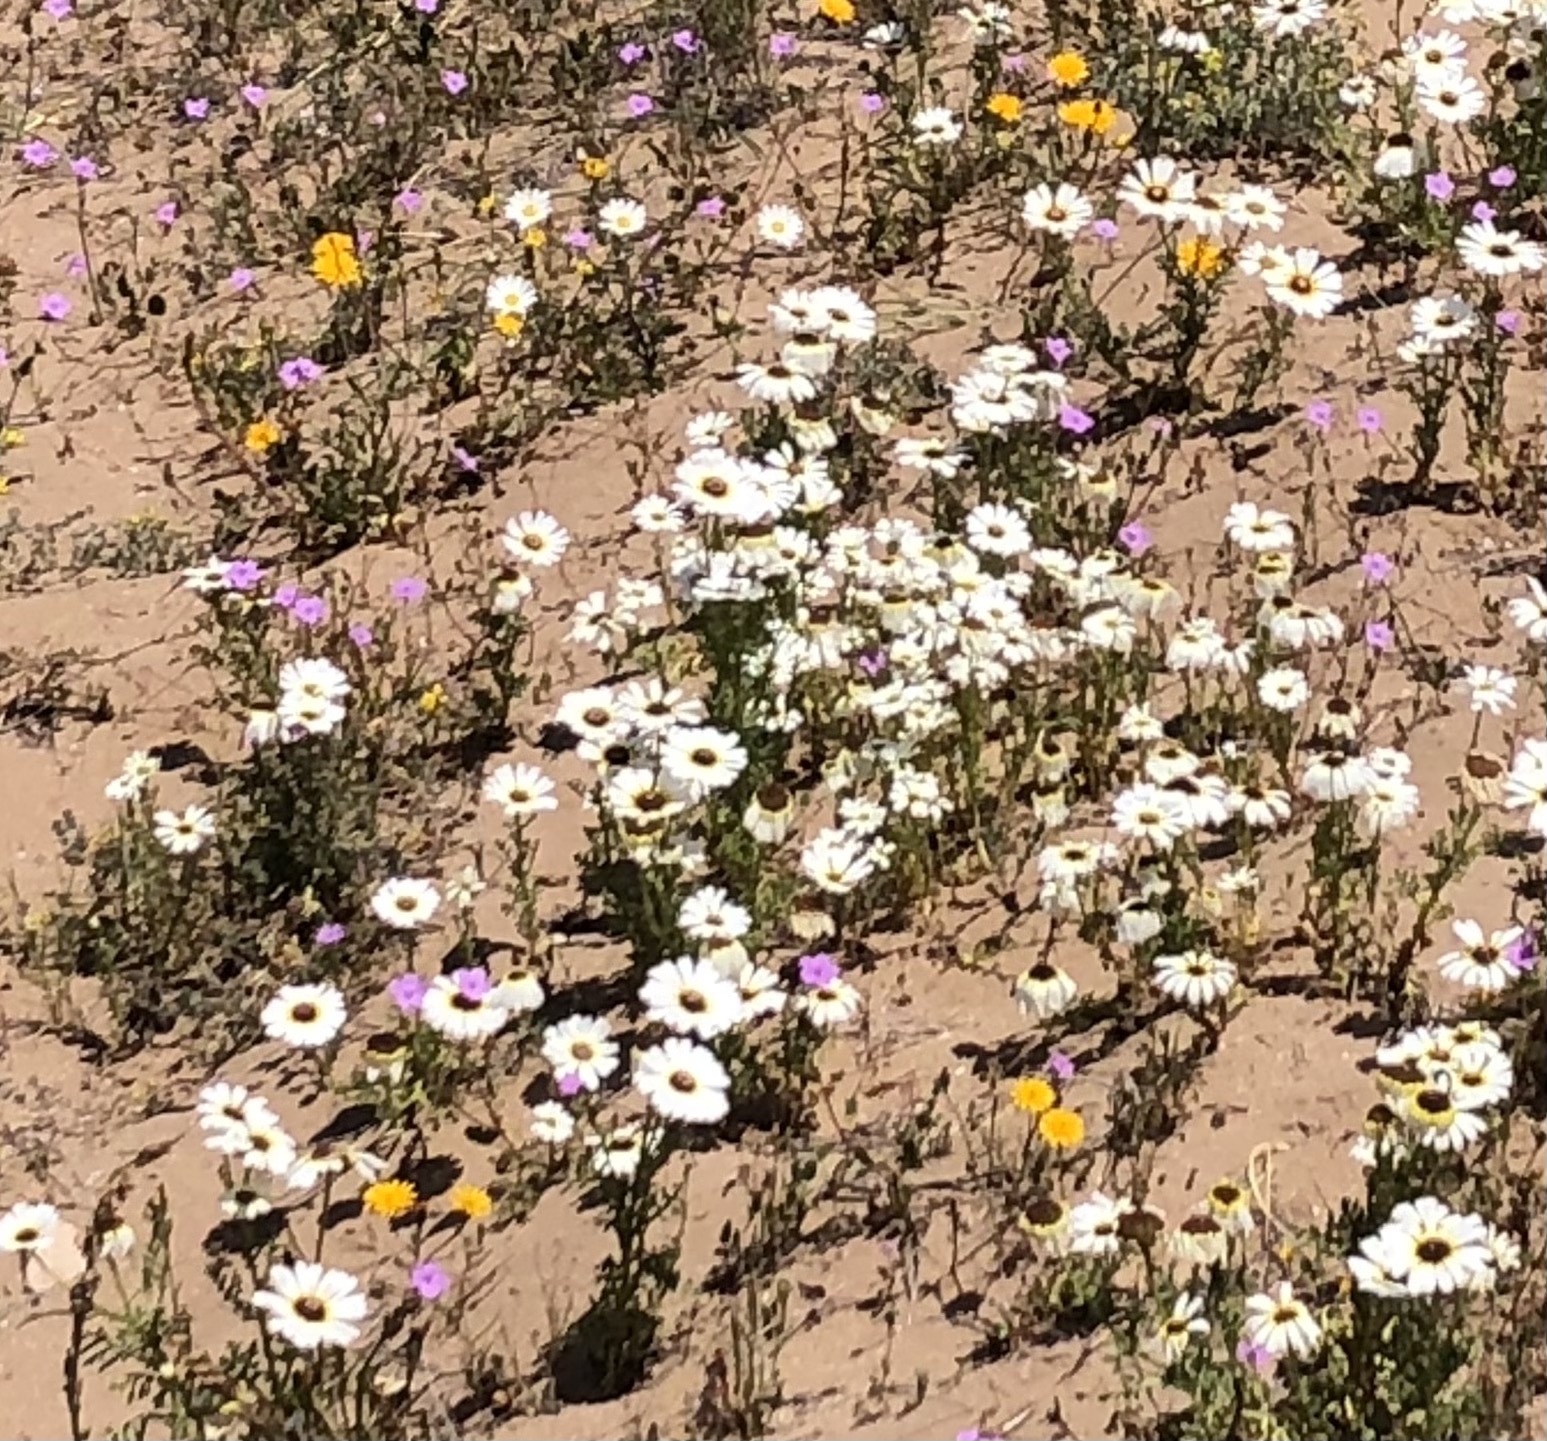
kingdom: Plantae
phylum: Tracheophyta
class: Magnoliopsida
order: Asterales
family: Asteraceae
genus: Glebionis
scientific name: Glebionis carinata
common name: Painted daisy
